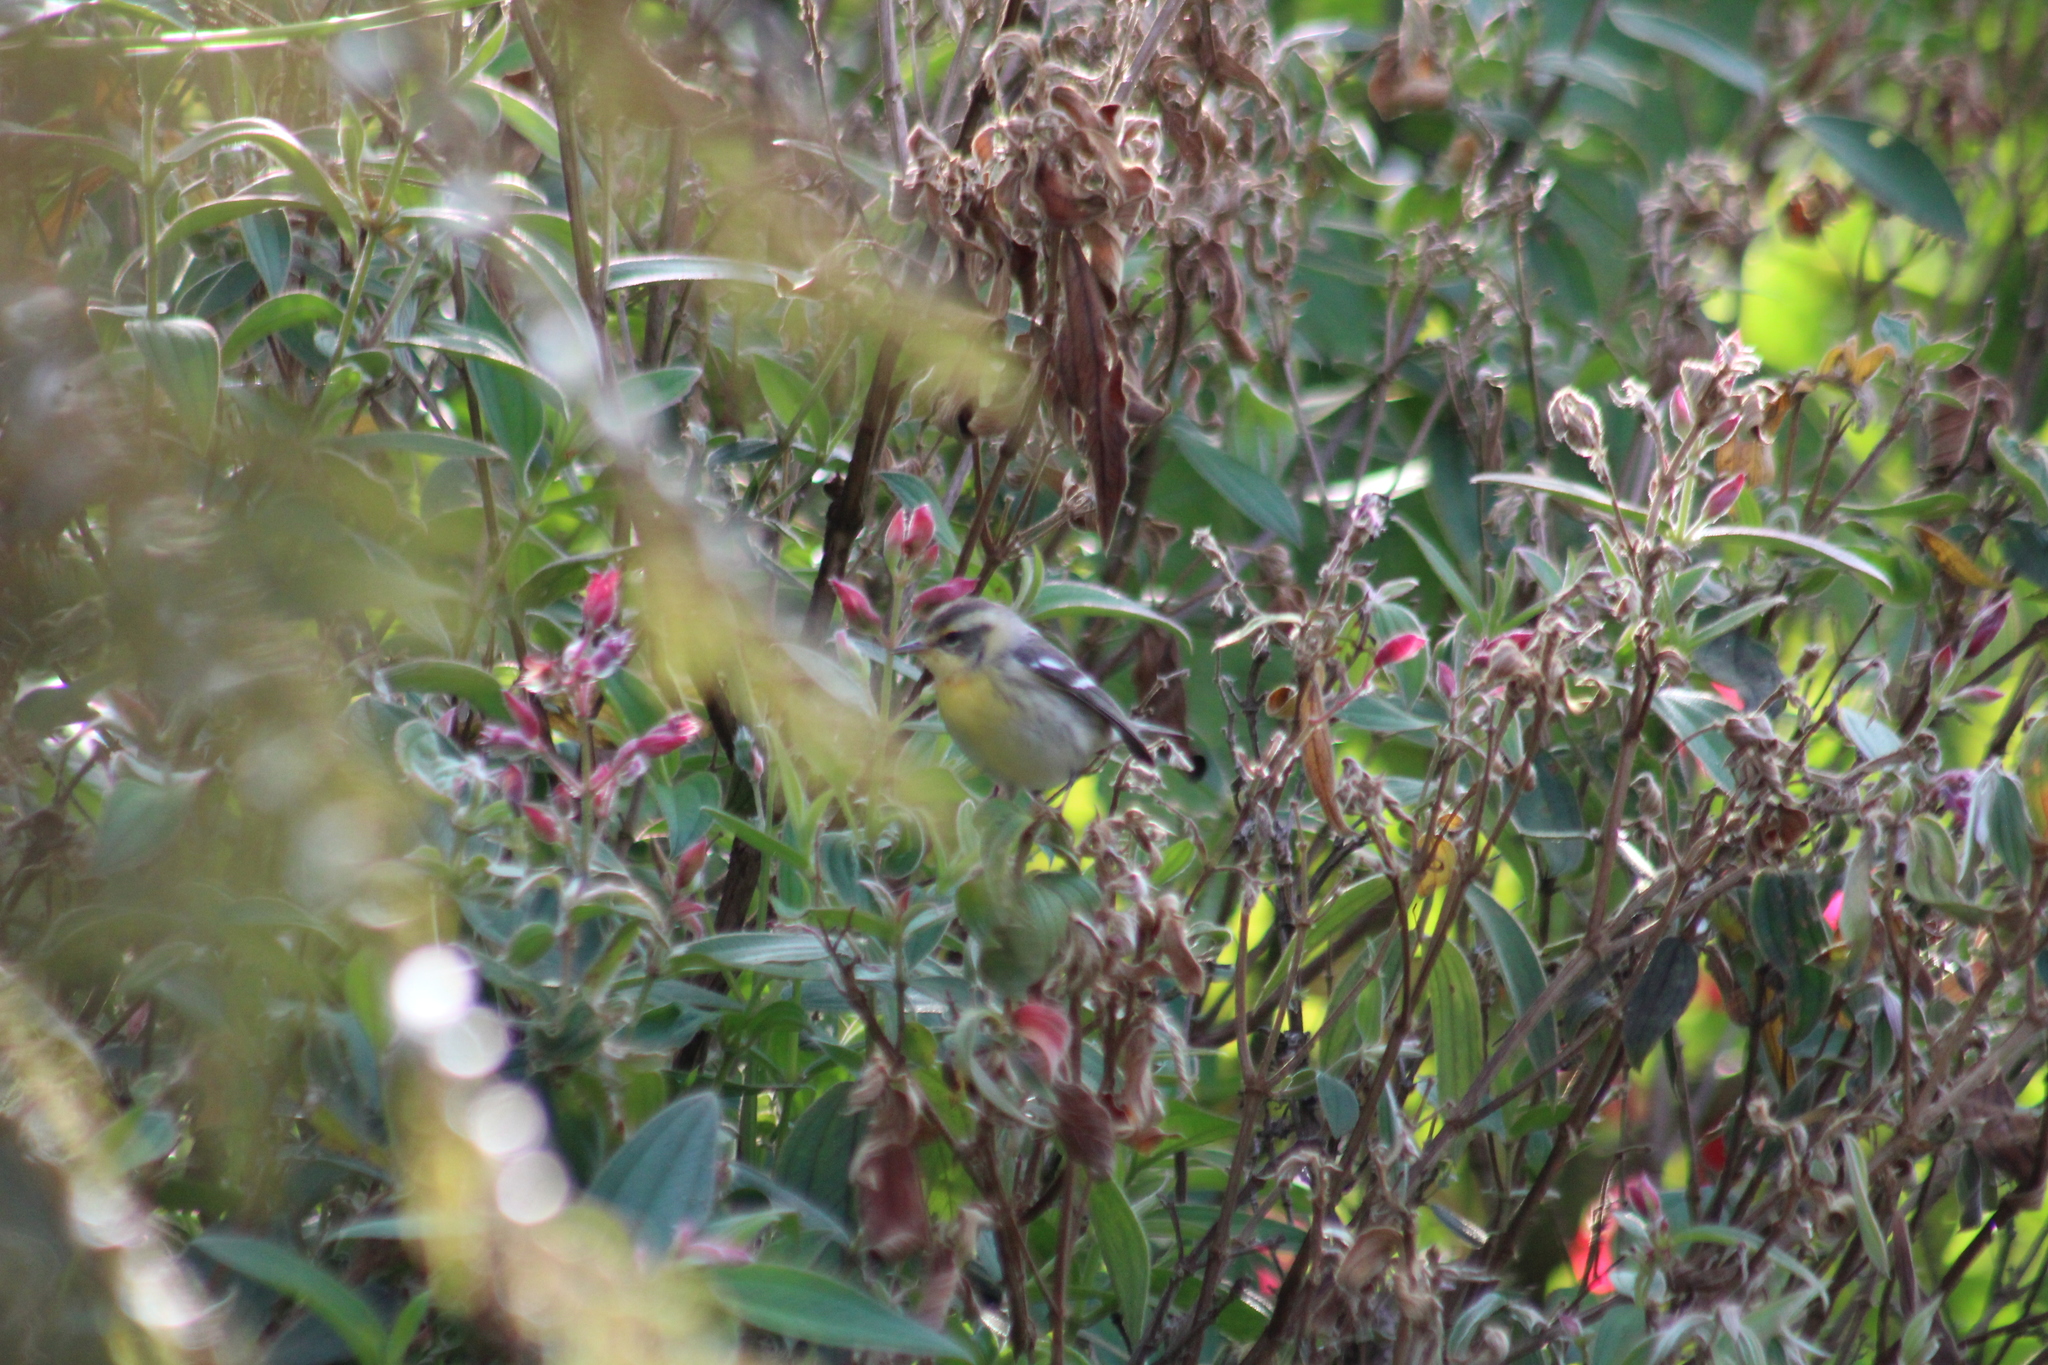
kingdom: Animalia
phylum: Chordata
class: Aves
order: Passeriformes
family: Parulidae
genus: Setophaga
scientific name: Setophaga fusca
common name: Blackburnian warbler
